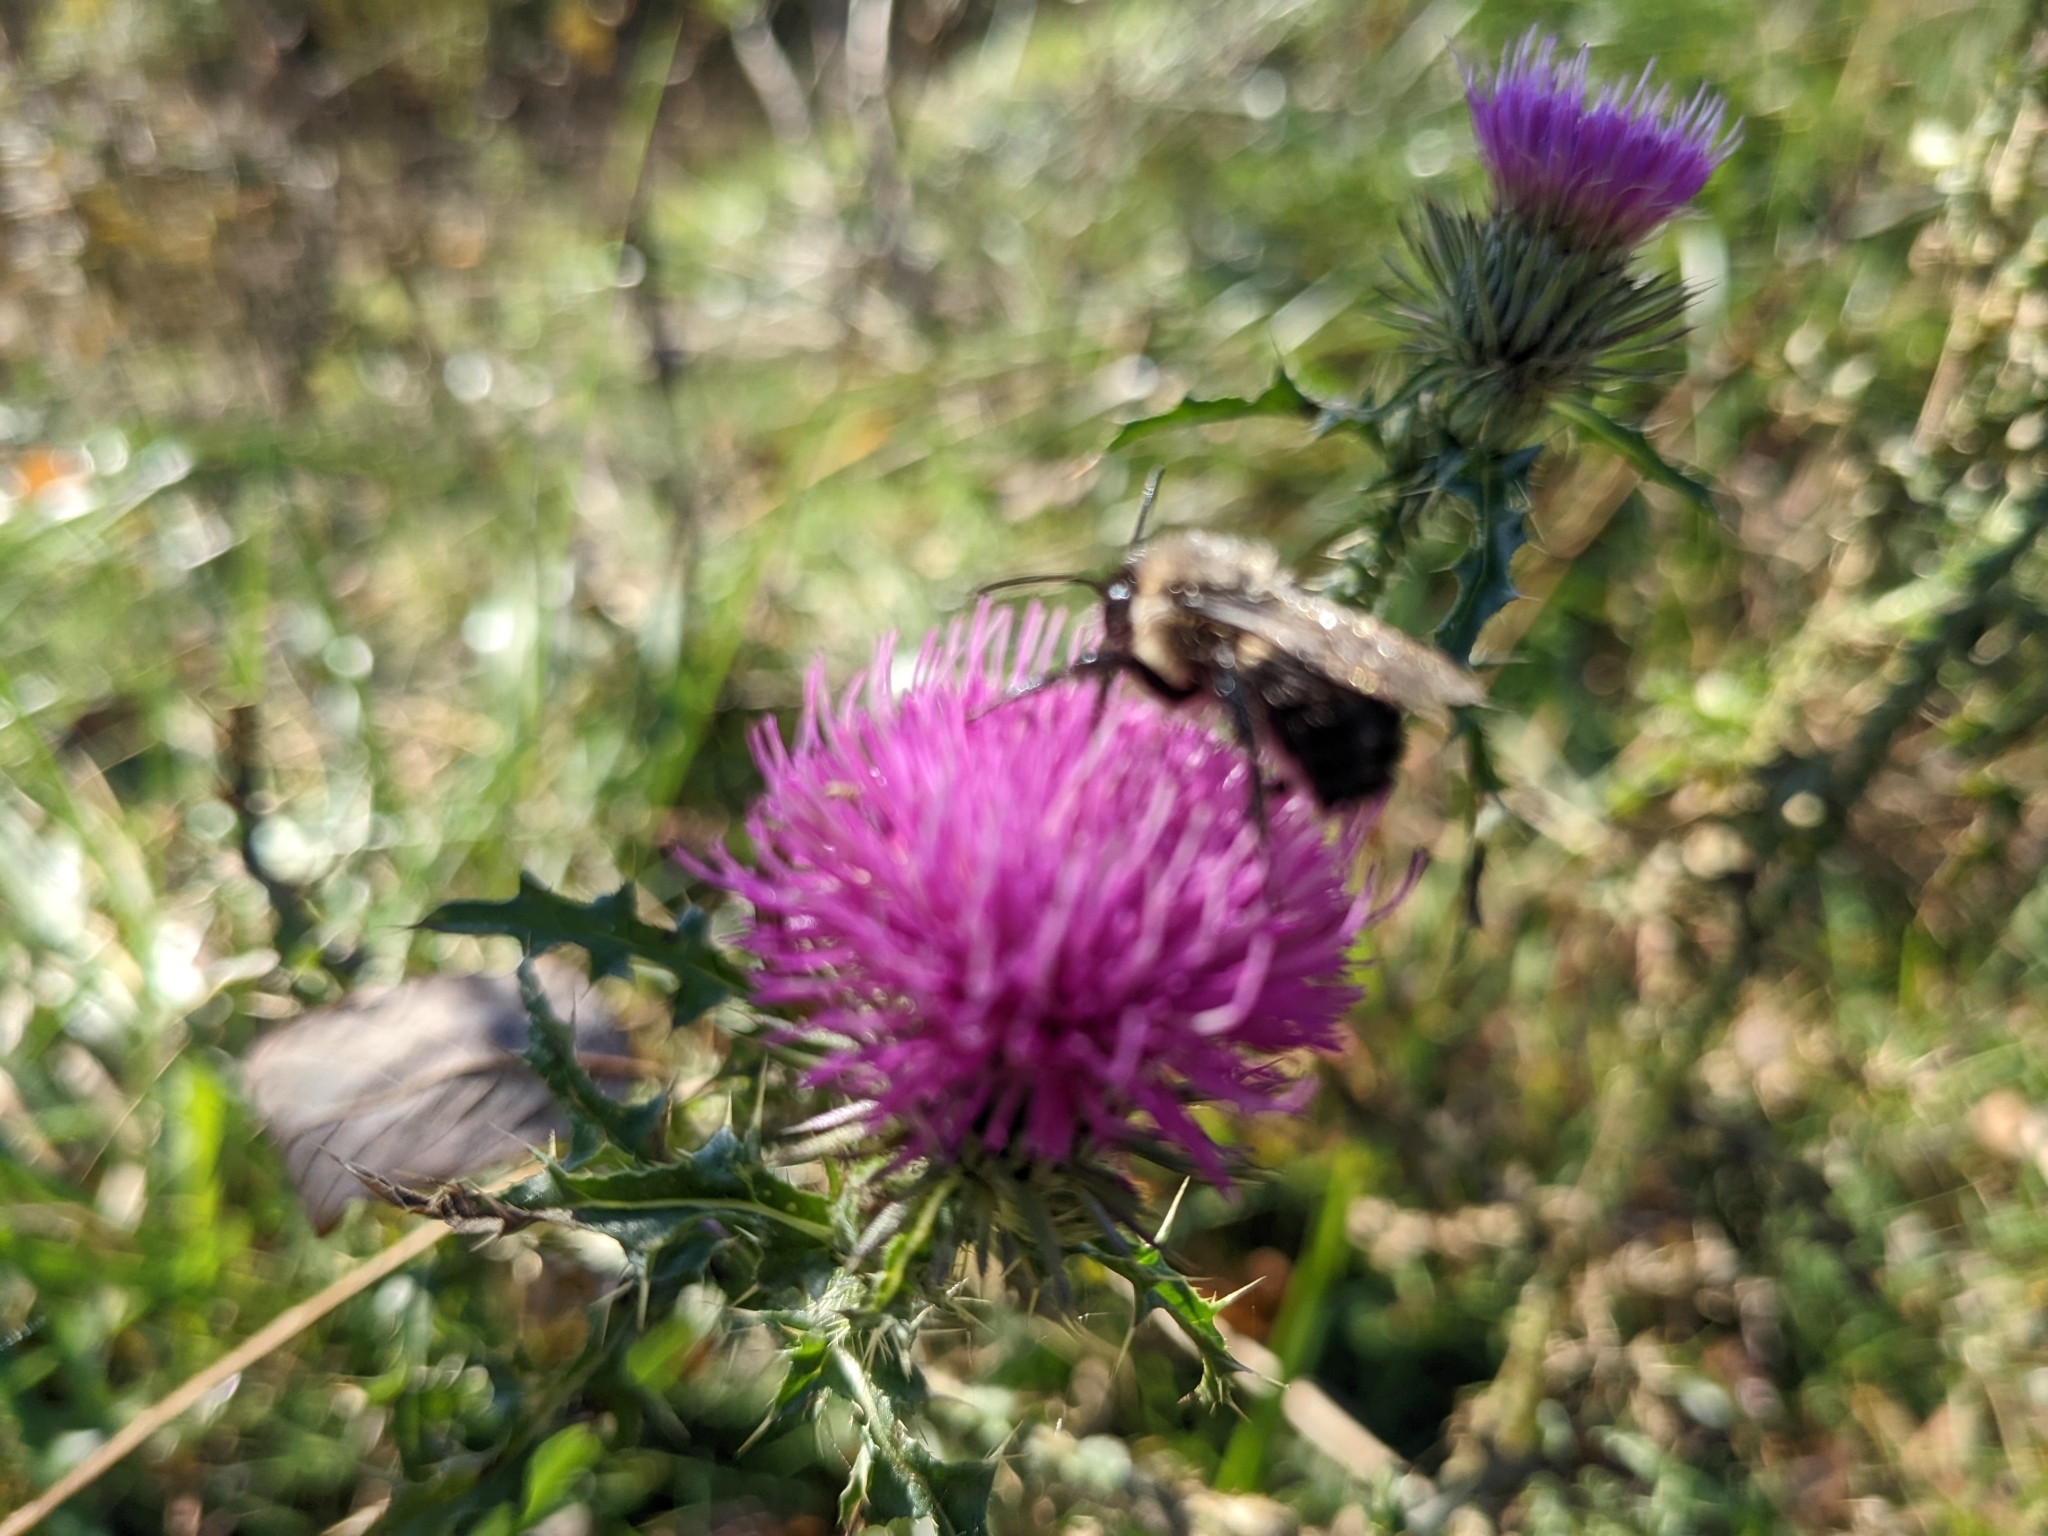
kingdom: Plantae
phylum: Tracheophyta
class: Magnoliopsida
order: Asterales
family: Asteraceae
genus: Carduus
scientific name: Carduus acanthoides
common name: Plumeless thistle
